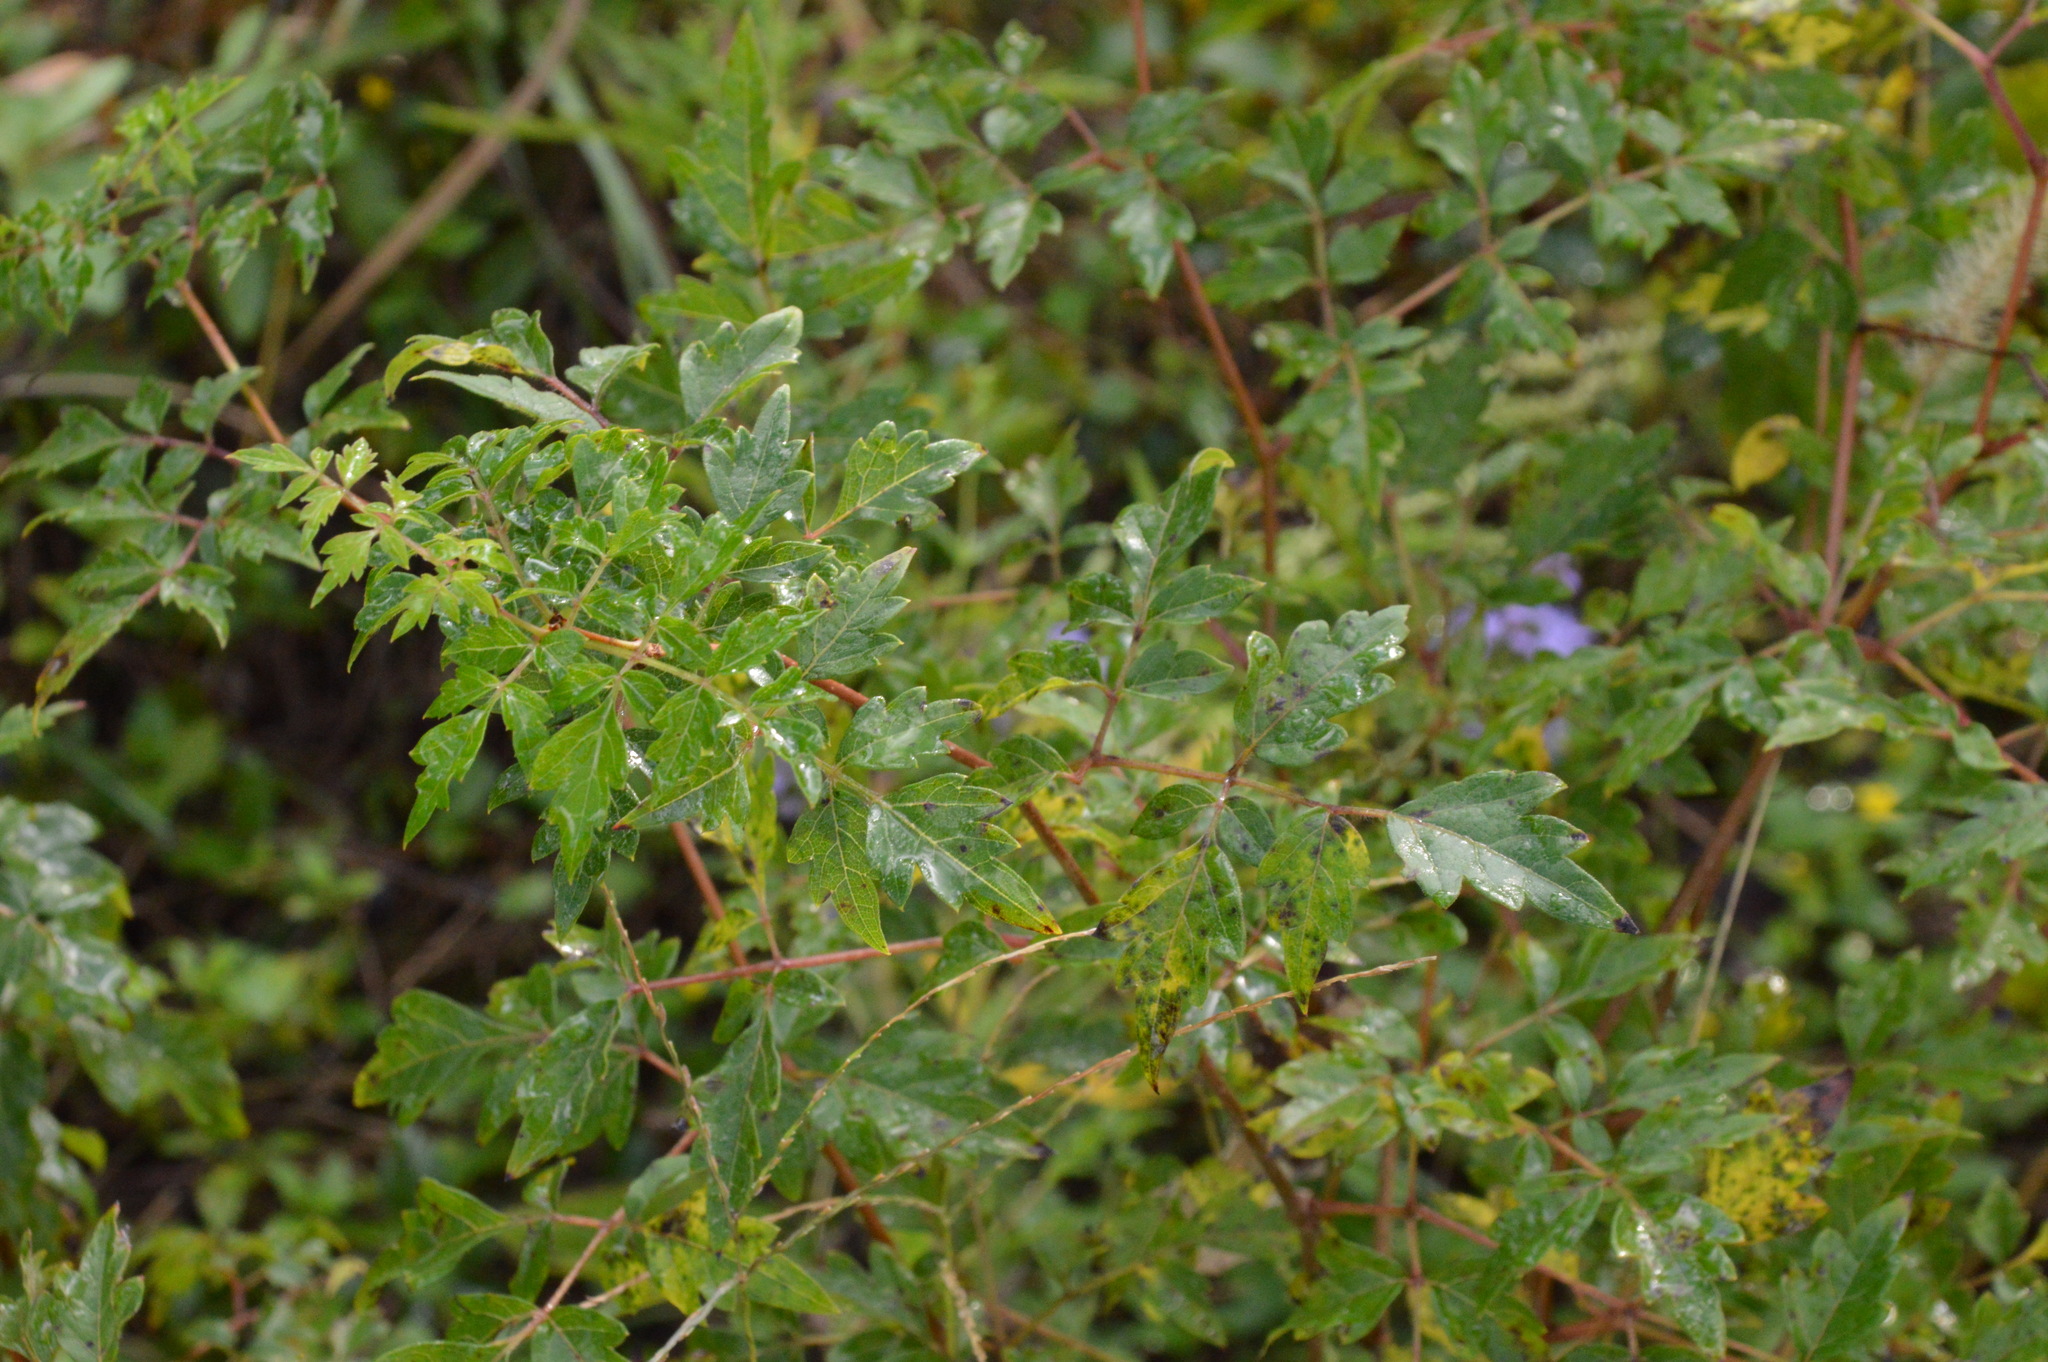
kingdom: Plantae
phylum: Tracheophyta
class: Magnoliopsida
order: Vitales
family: Vitaceae
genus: Nekemias
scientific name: Nekemias arborea
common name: Peppervine
